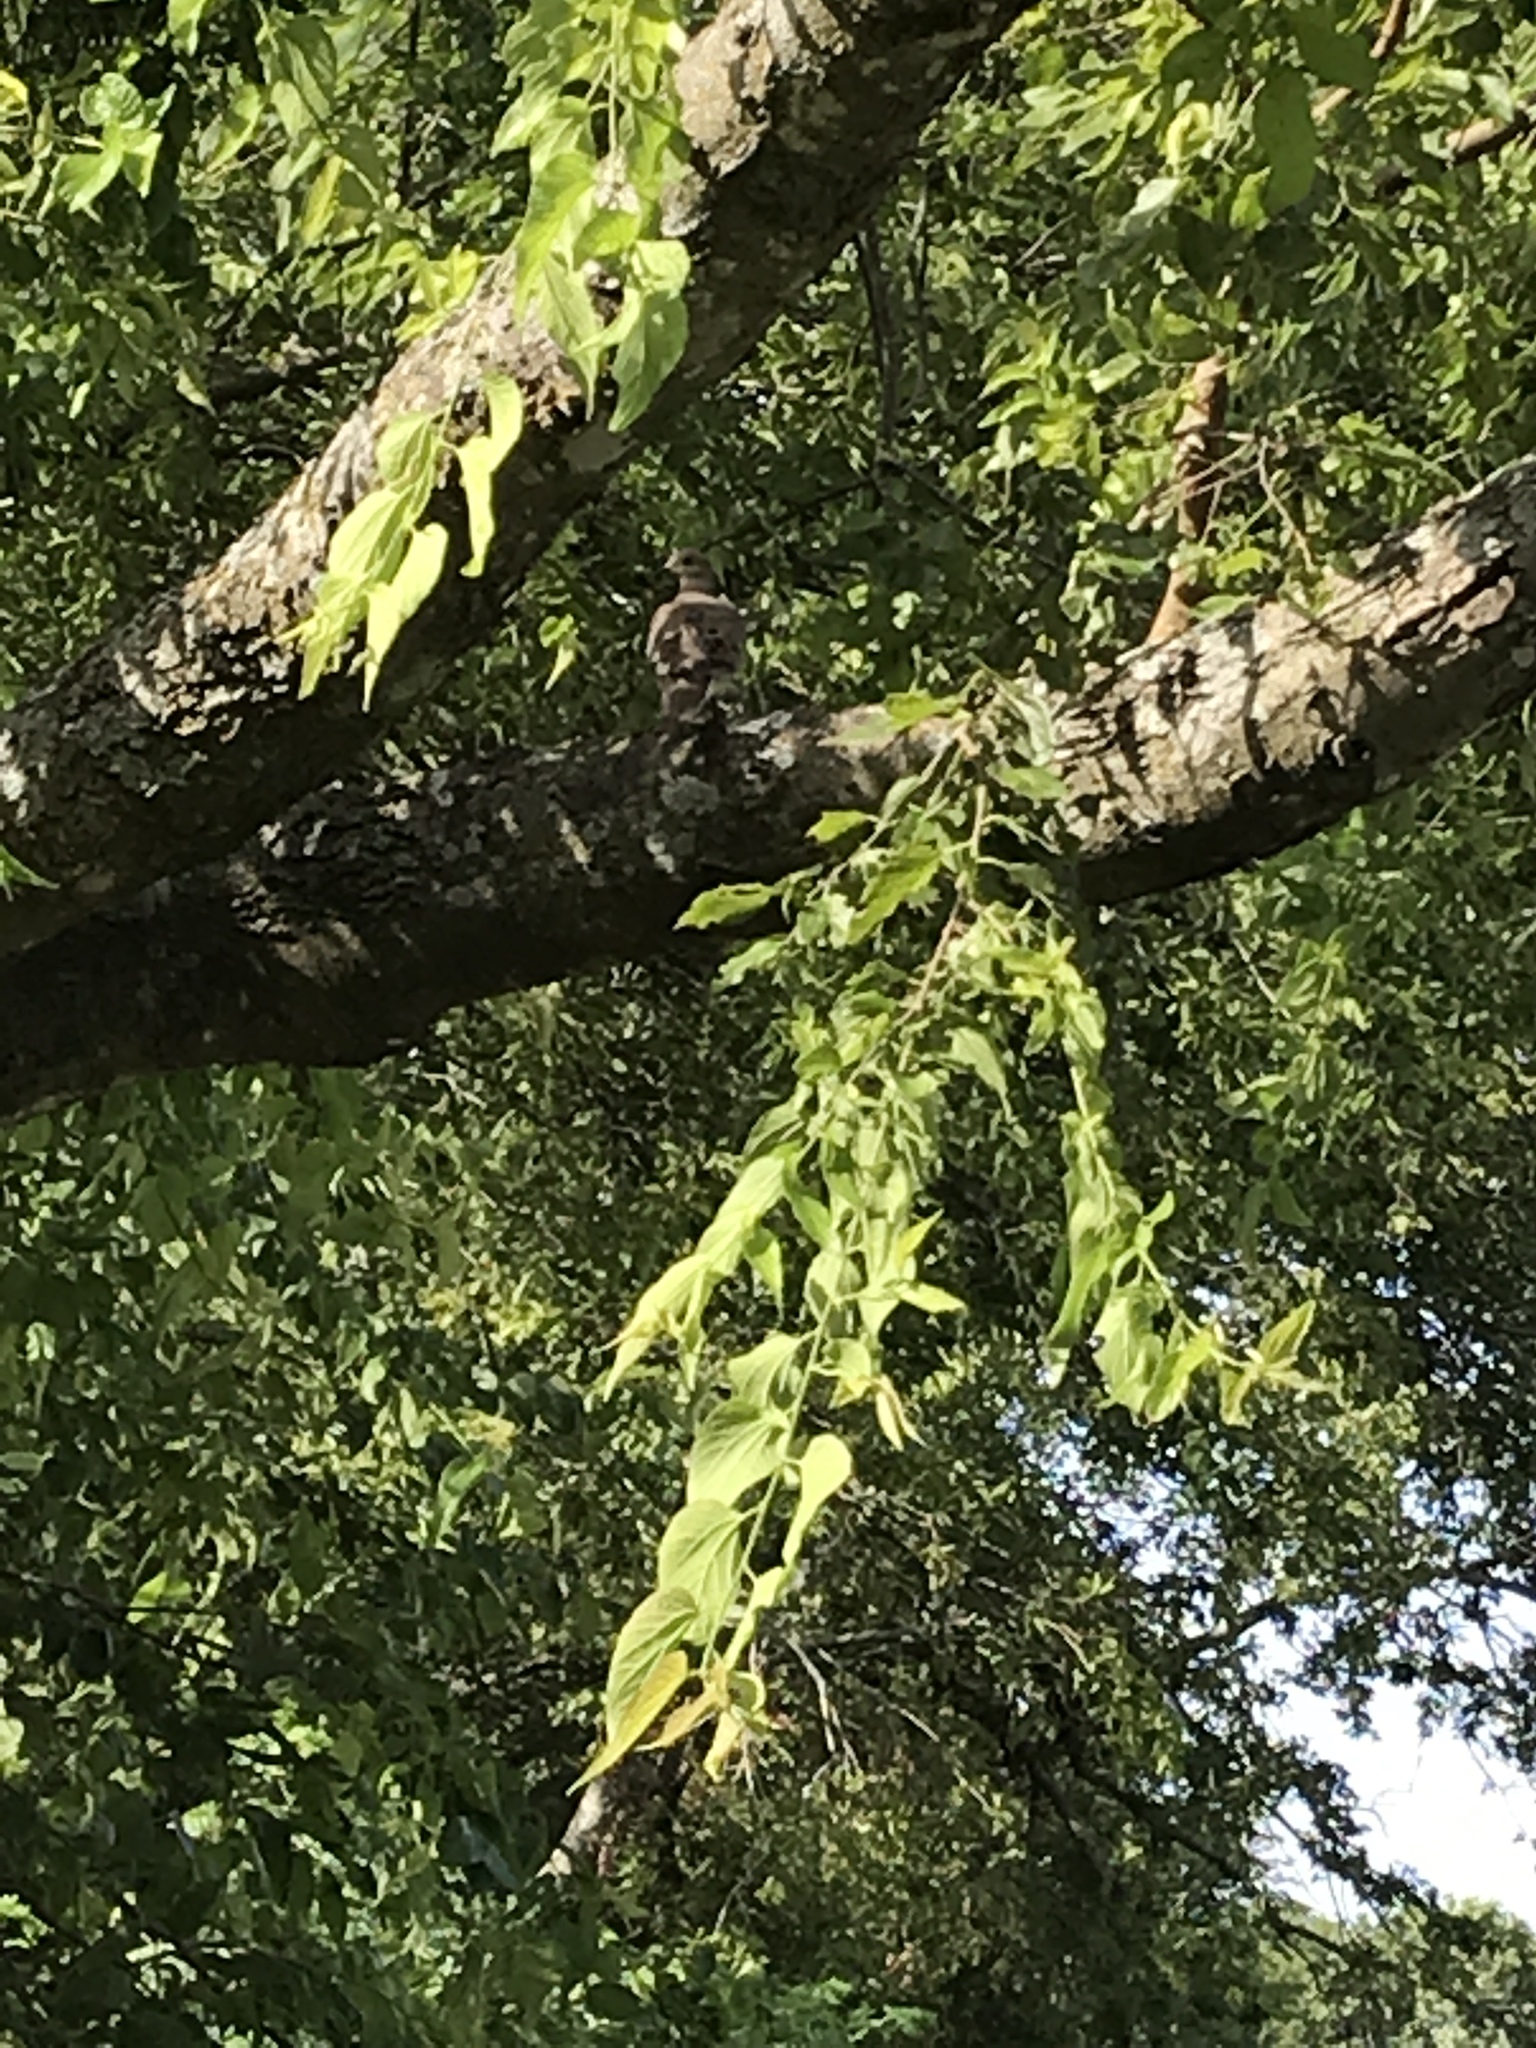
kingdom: Animalia
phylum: Chordata
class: Aves
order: Columbiformes
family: Columbidae
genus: Zenaida
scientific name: Zenaida macroura
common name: Mourning dove
